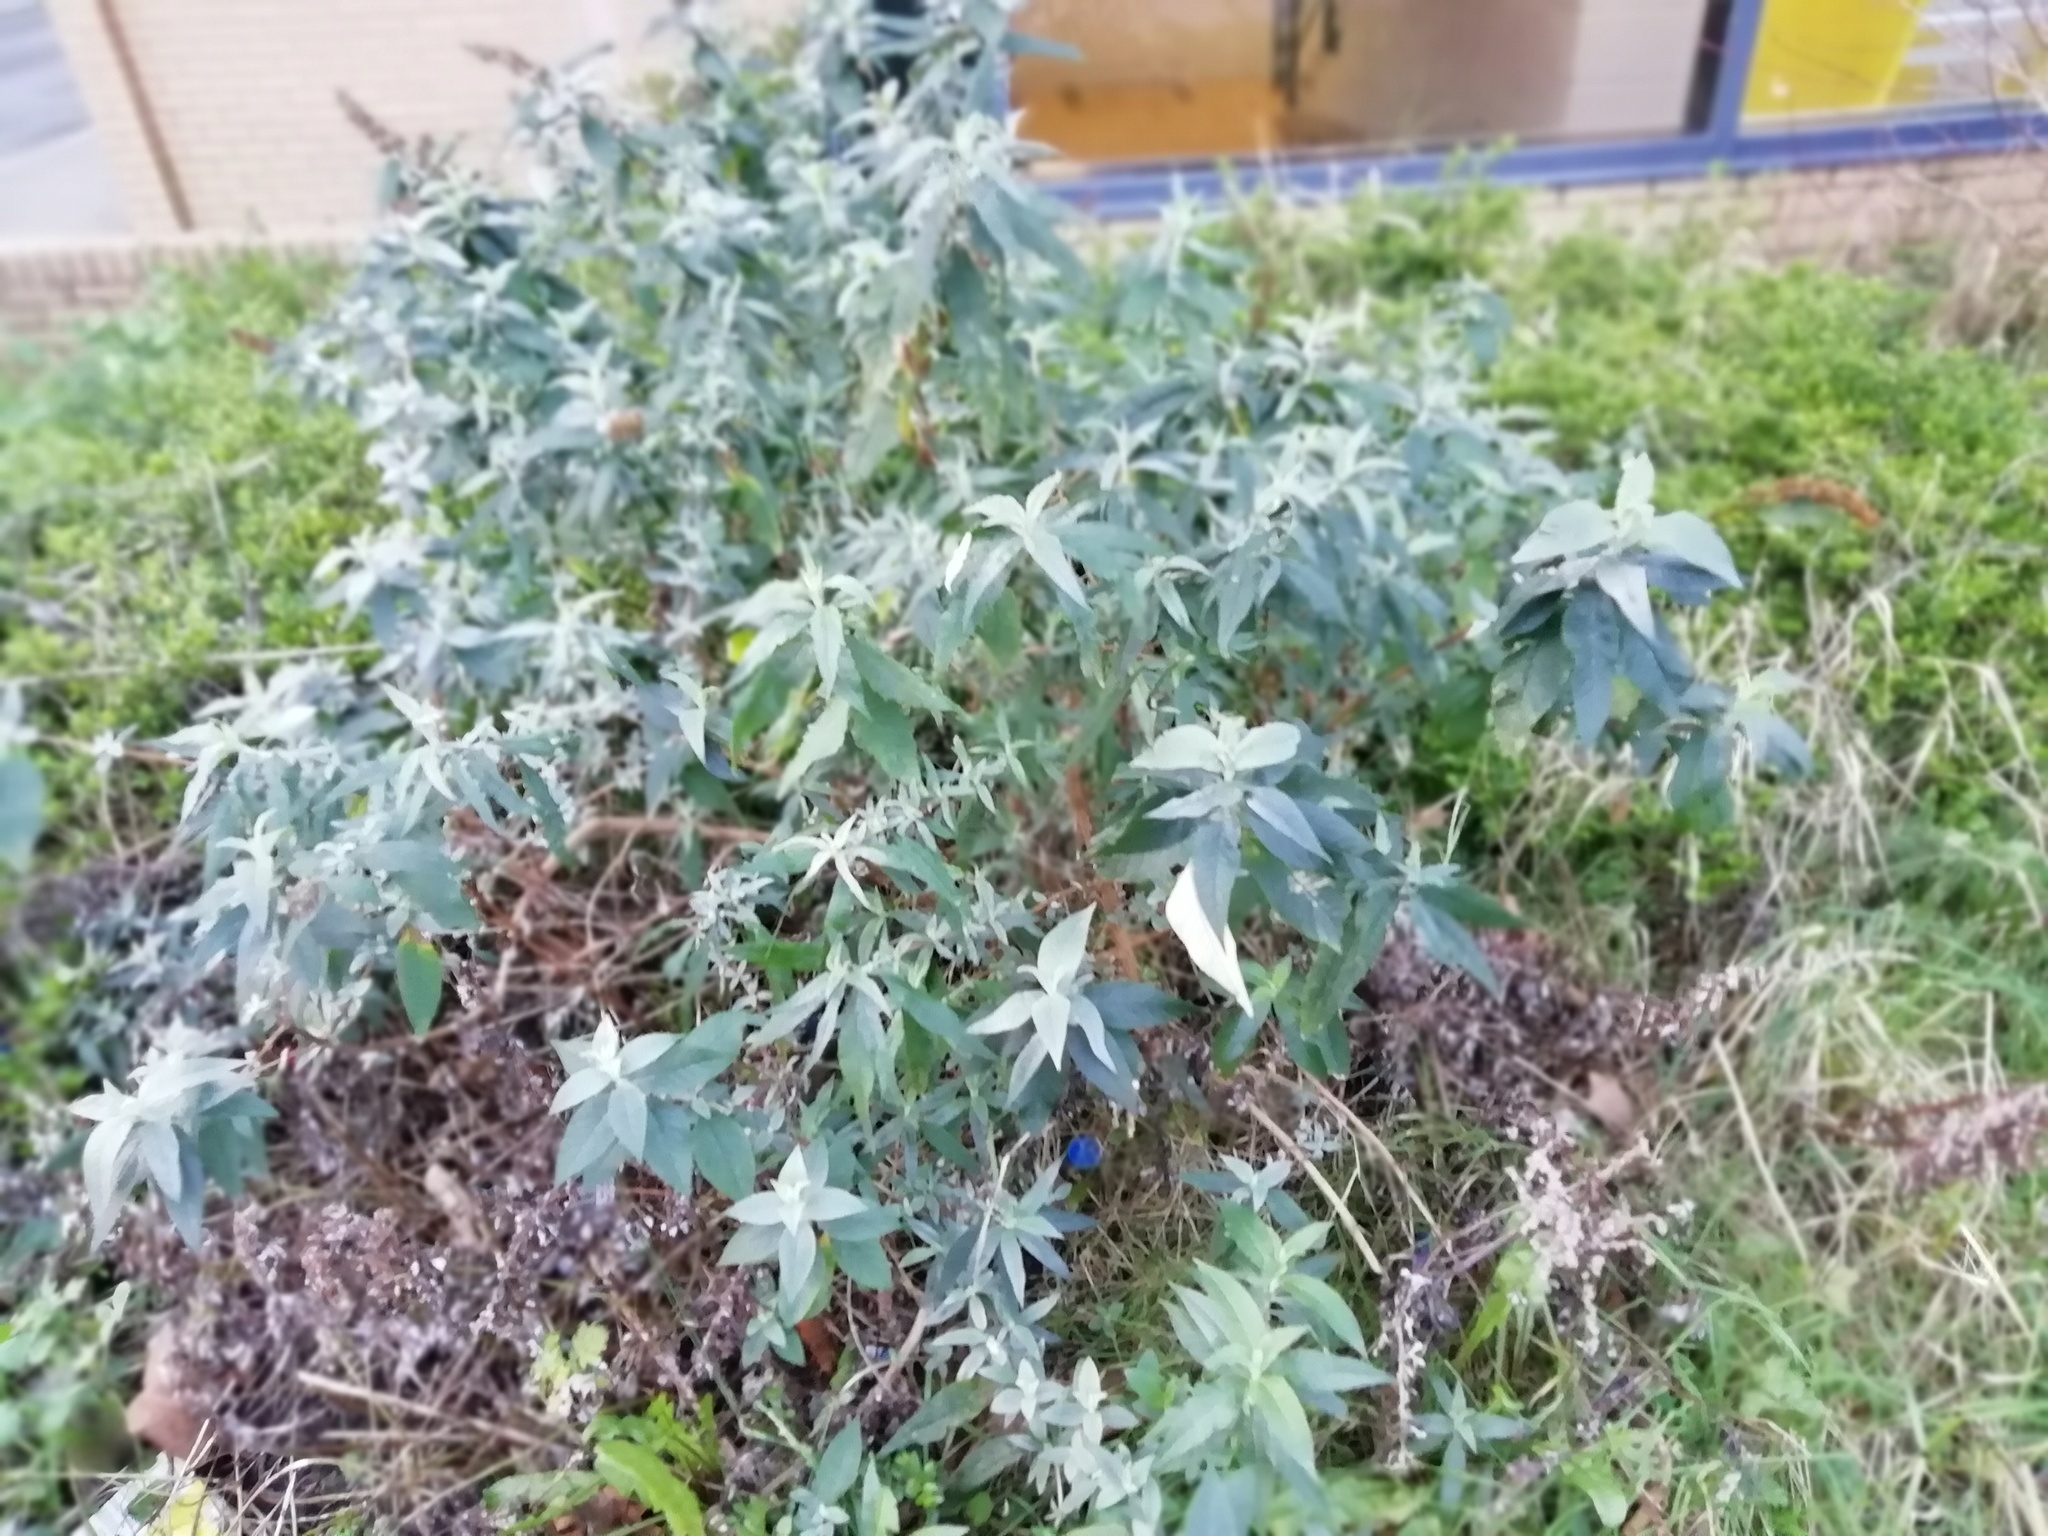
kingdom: Plantae
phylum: Tracheophyta
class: Magnoliopsida
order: Lamiales
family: Scrophulariaceae
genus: Buddleja
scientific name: Buddleja davidii
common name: Butterfly-bush
